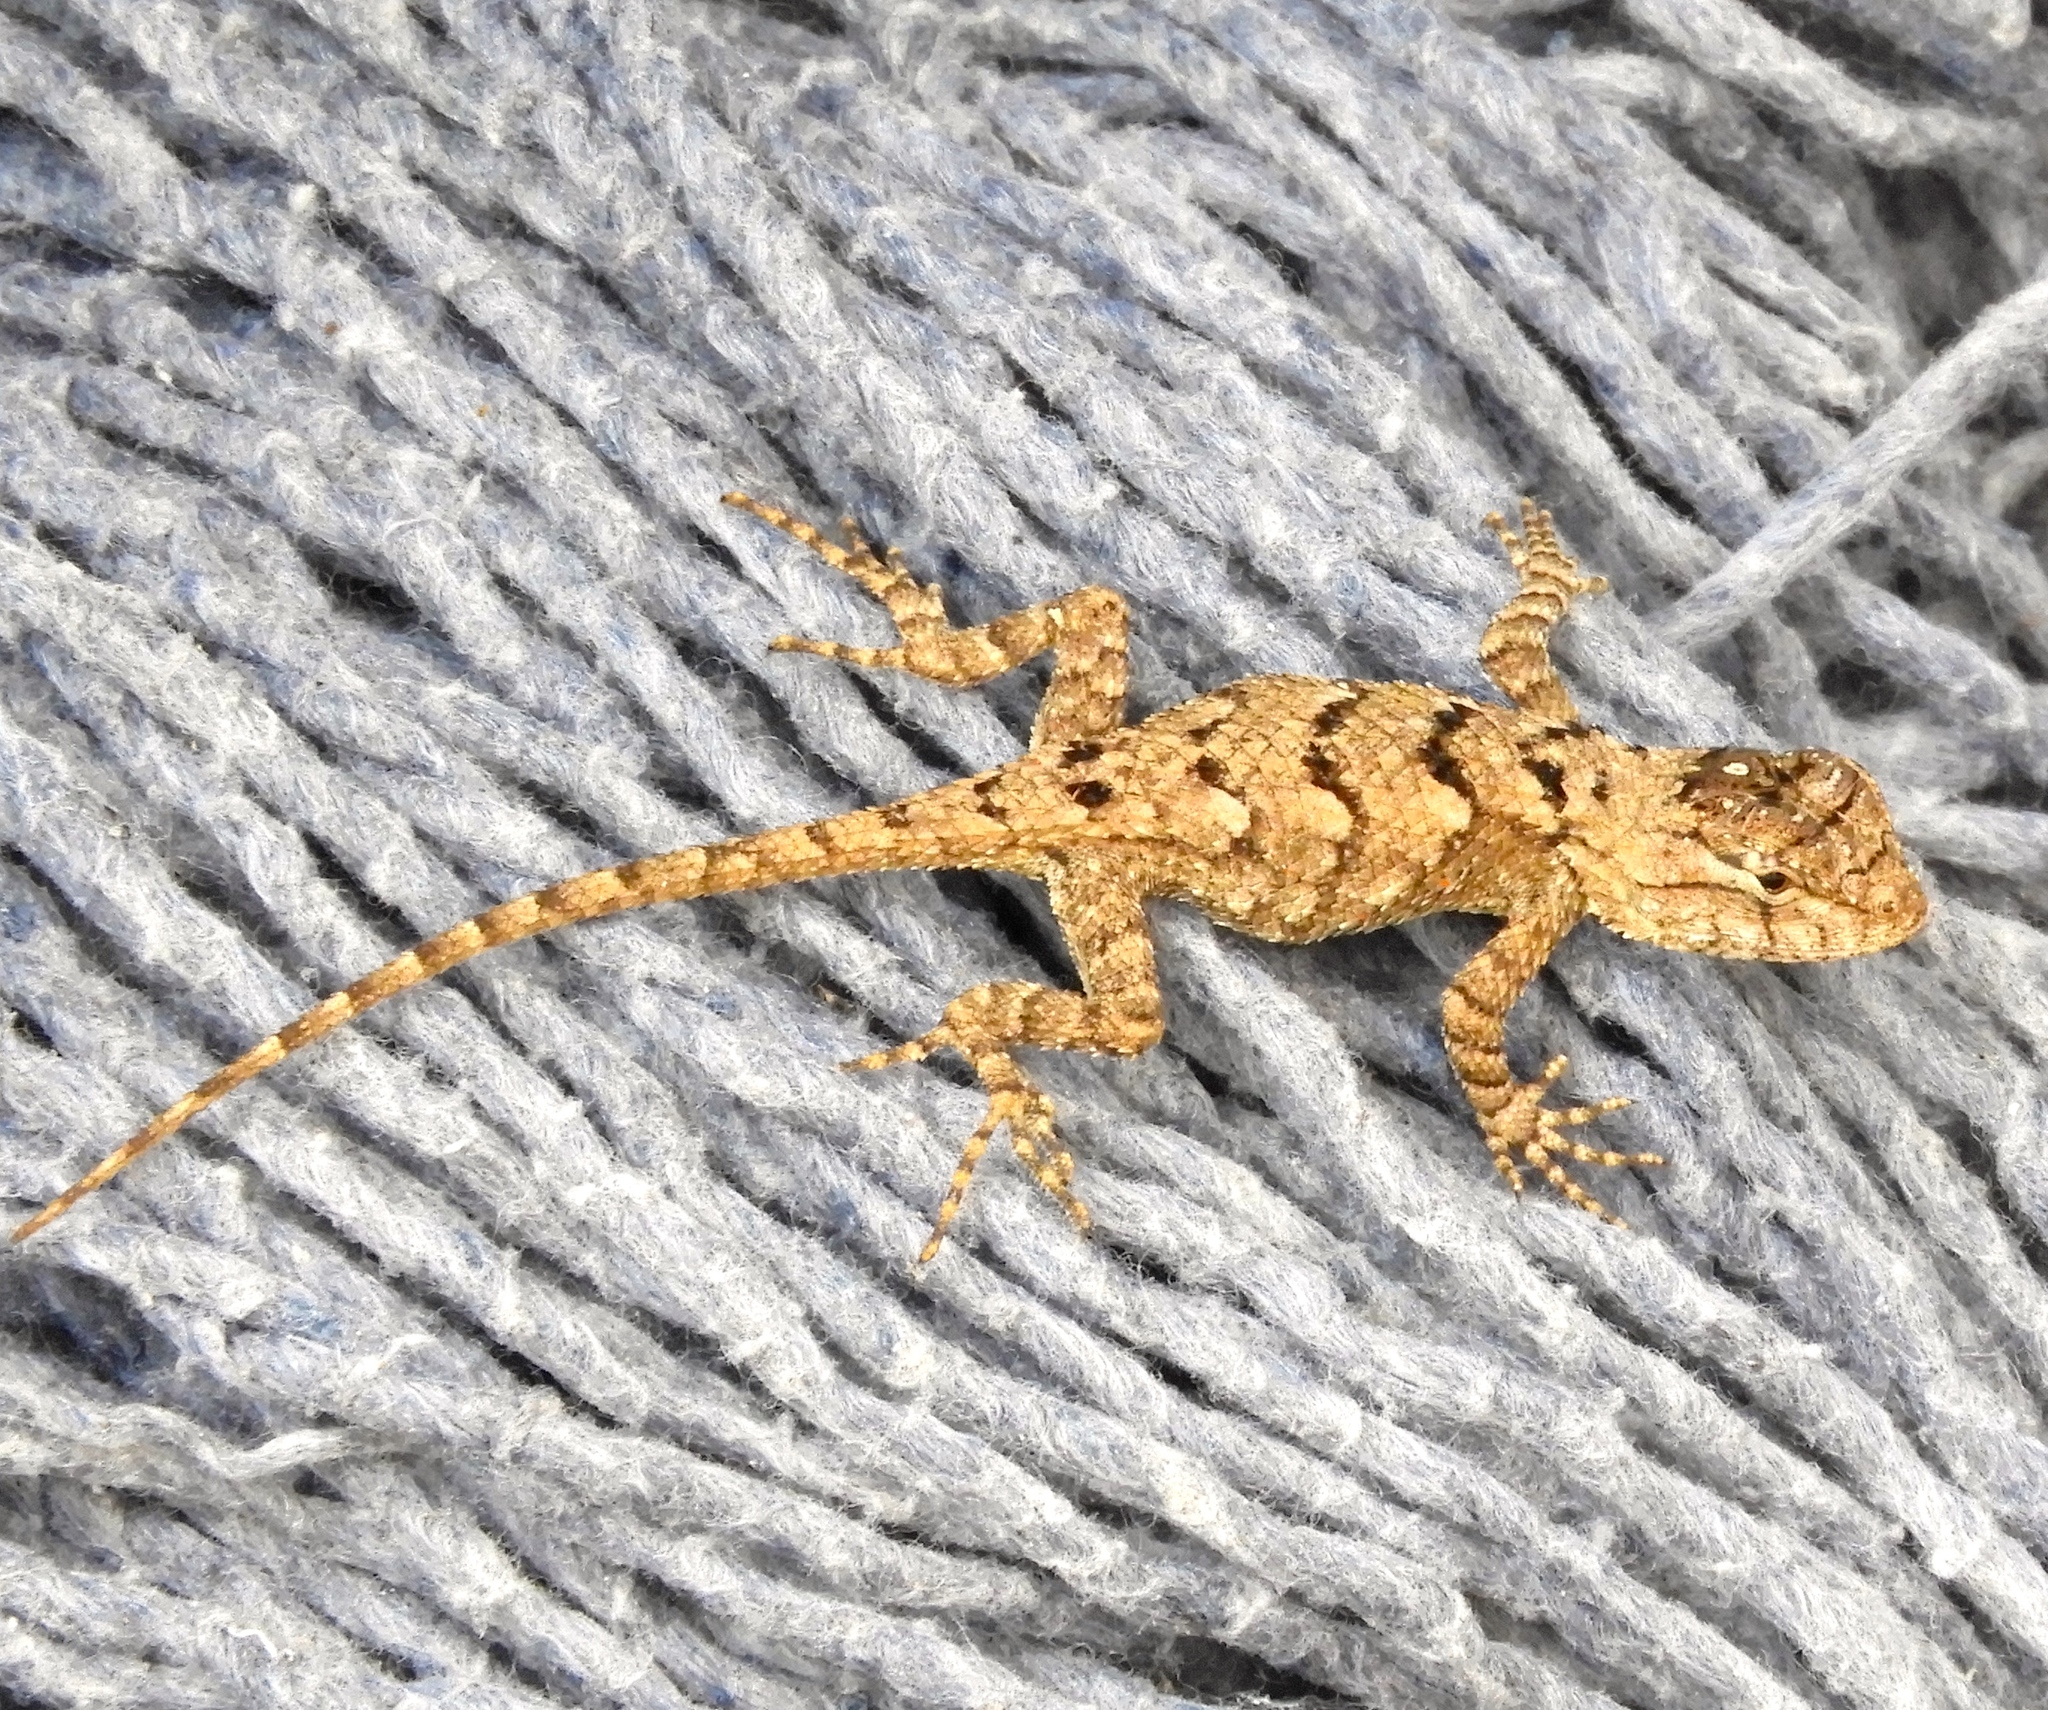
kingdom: Animalia
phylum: Chordata
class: Squamata
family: Phrynosomatidae
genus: Sceloporus
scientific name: Sceloporus clarkii
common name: Clark's spiny lizard
